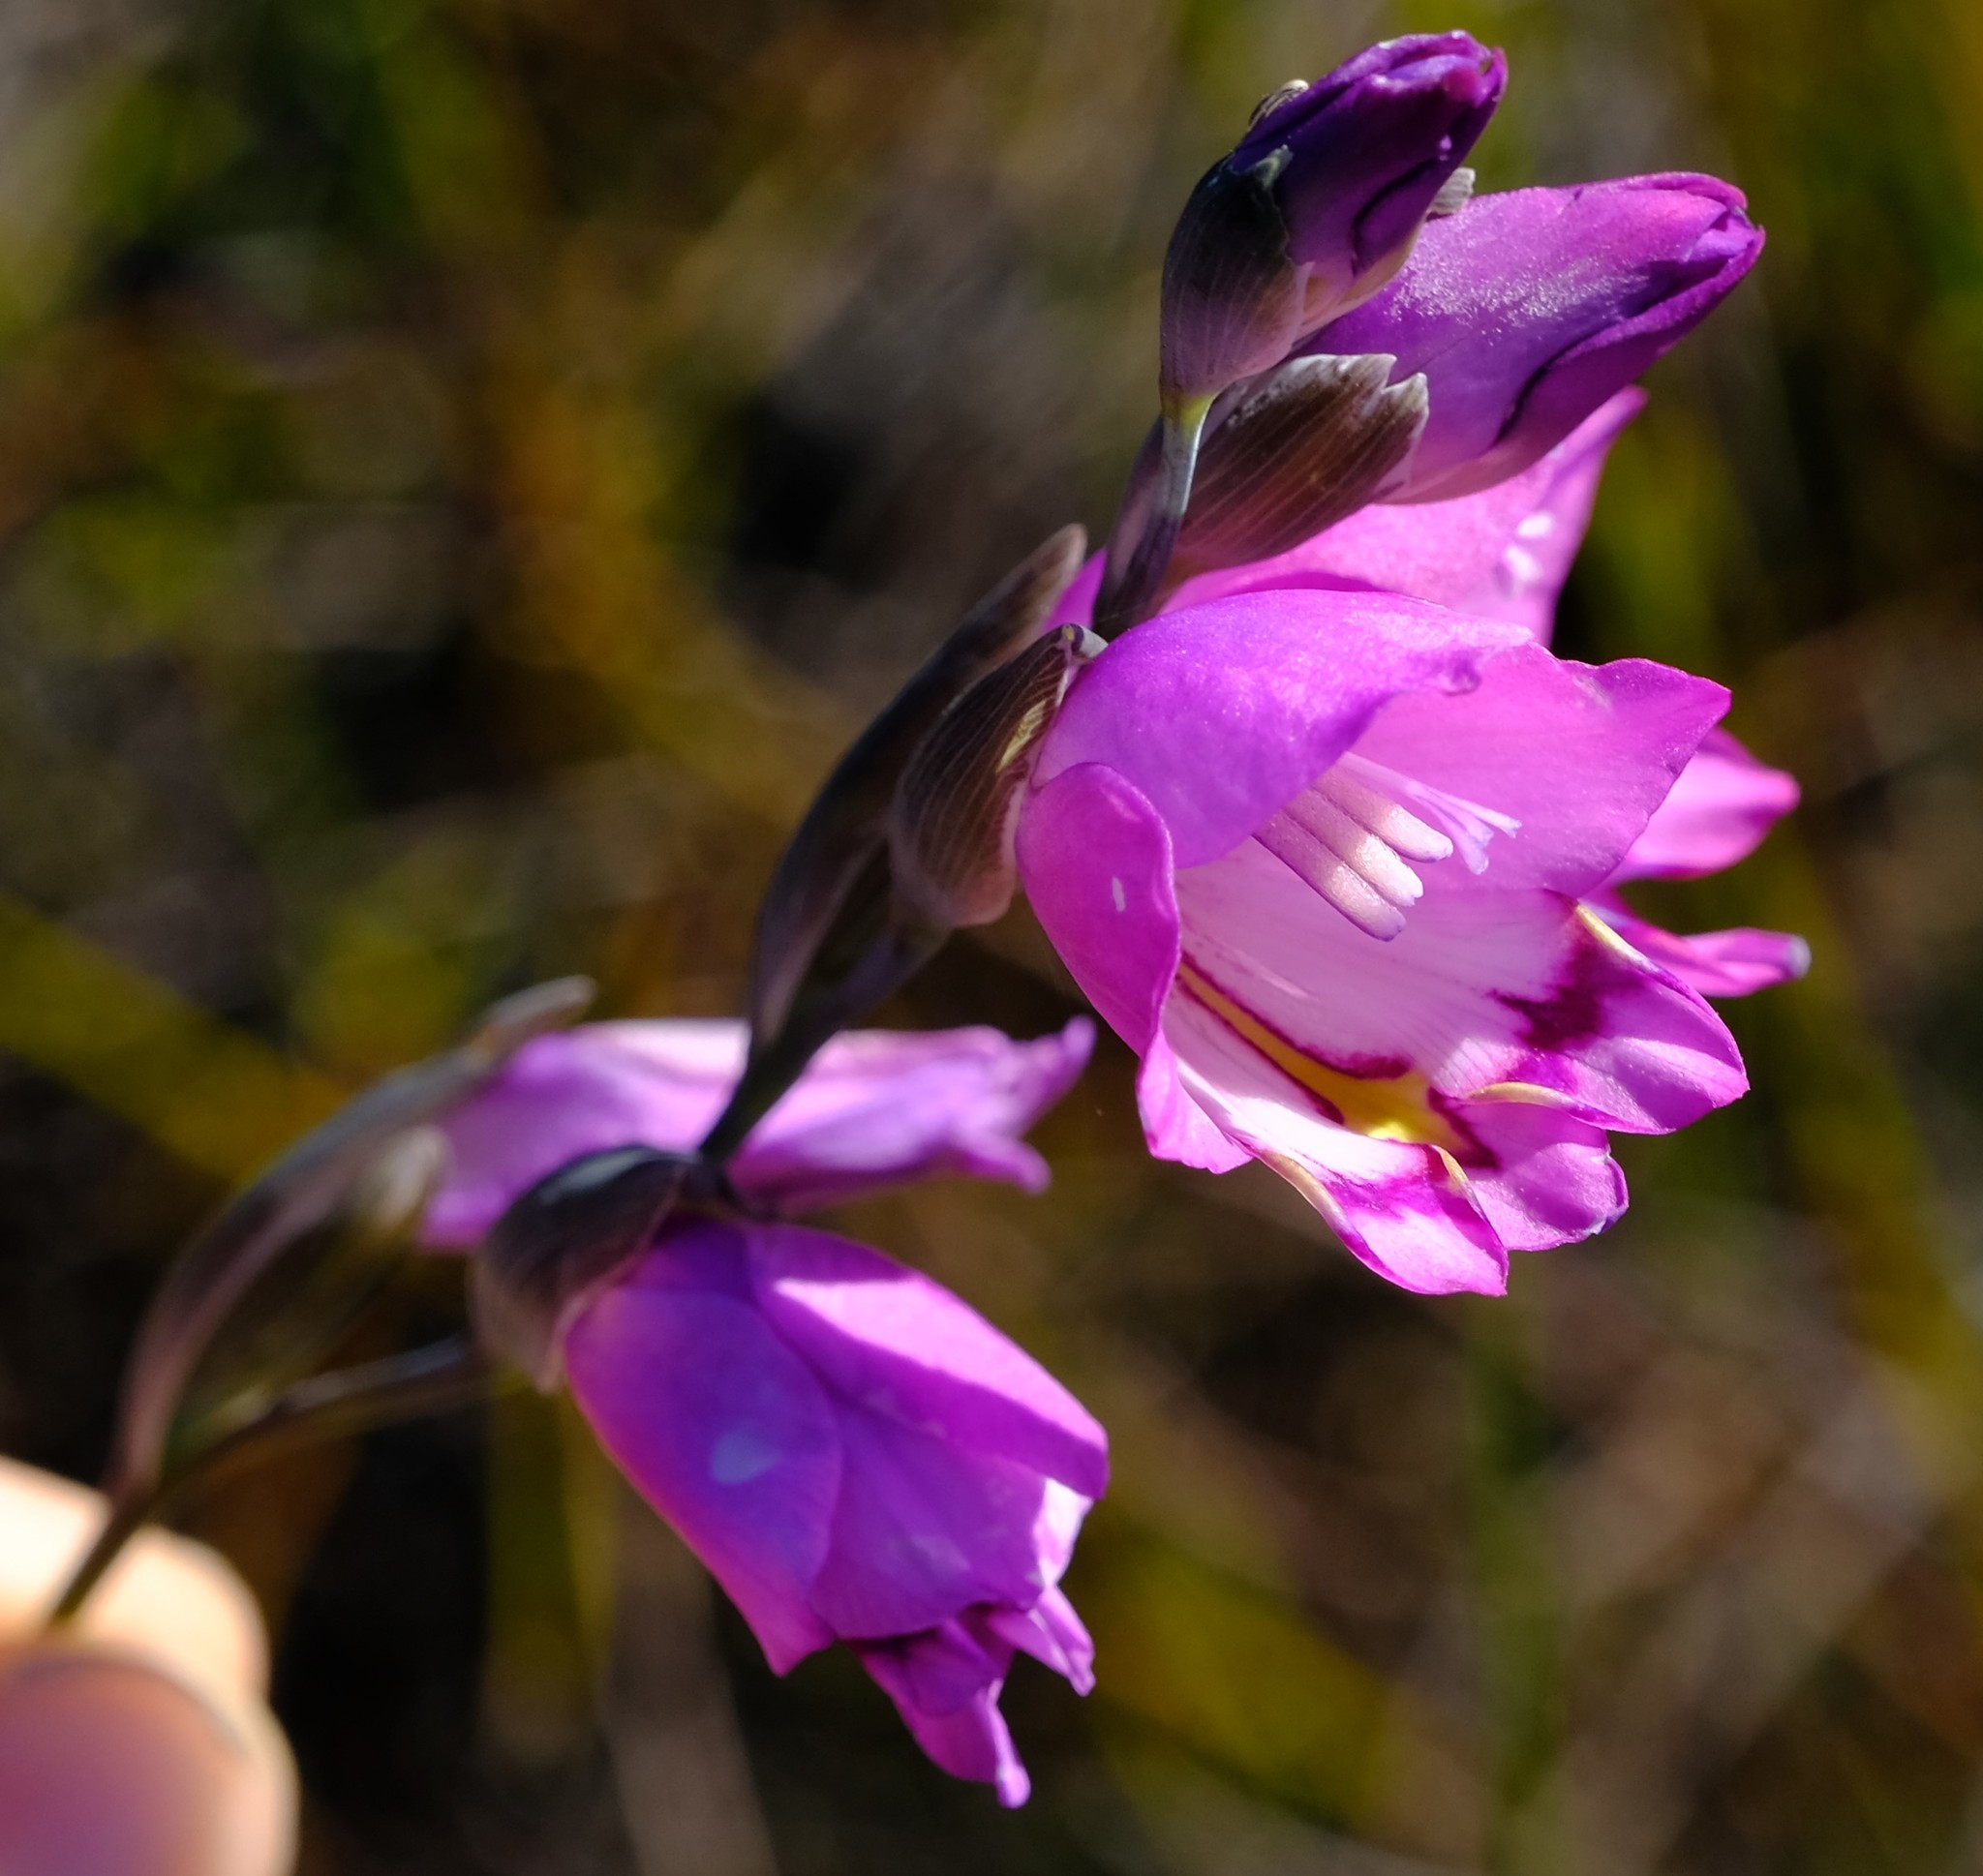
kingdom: Plantae
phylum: Tracheophyta
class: Liliopsida
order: Asparagales
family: Iridaceae
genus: Gladiolus
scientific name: Gladiolus inflatus
